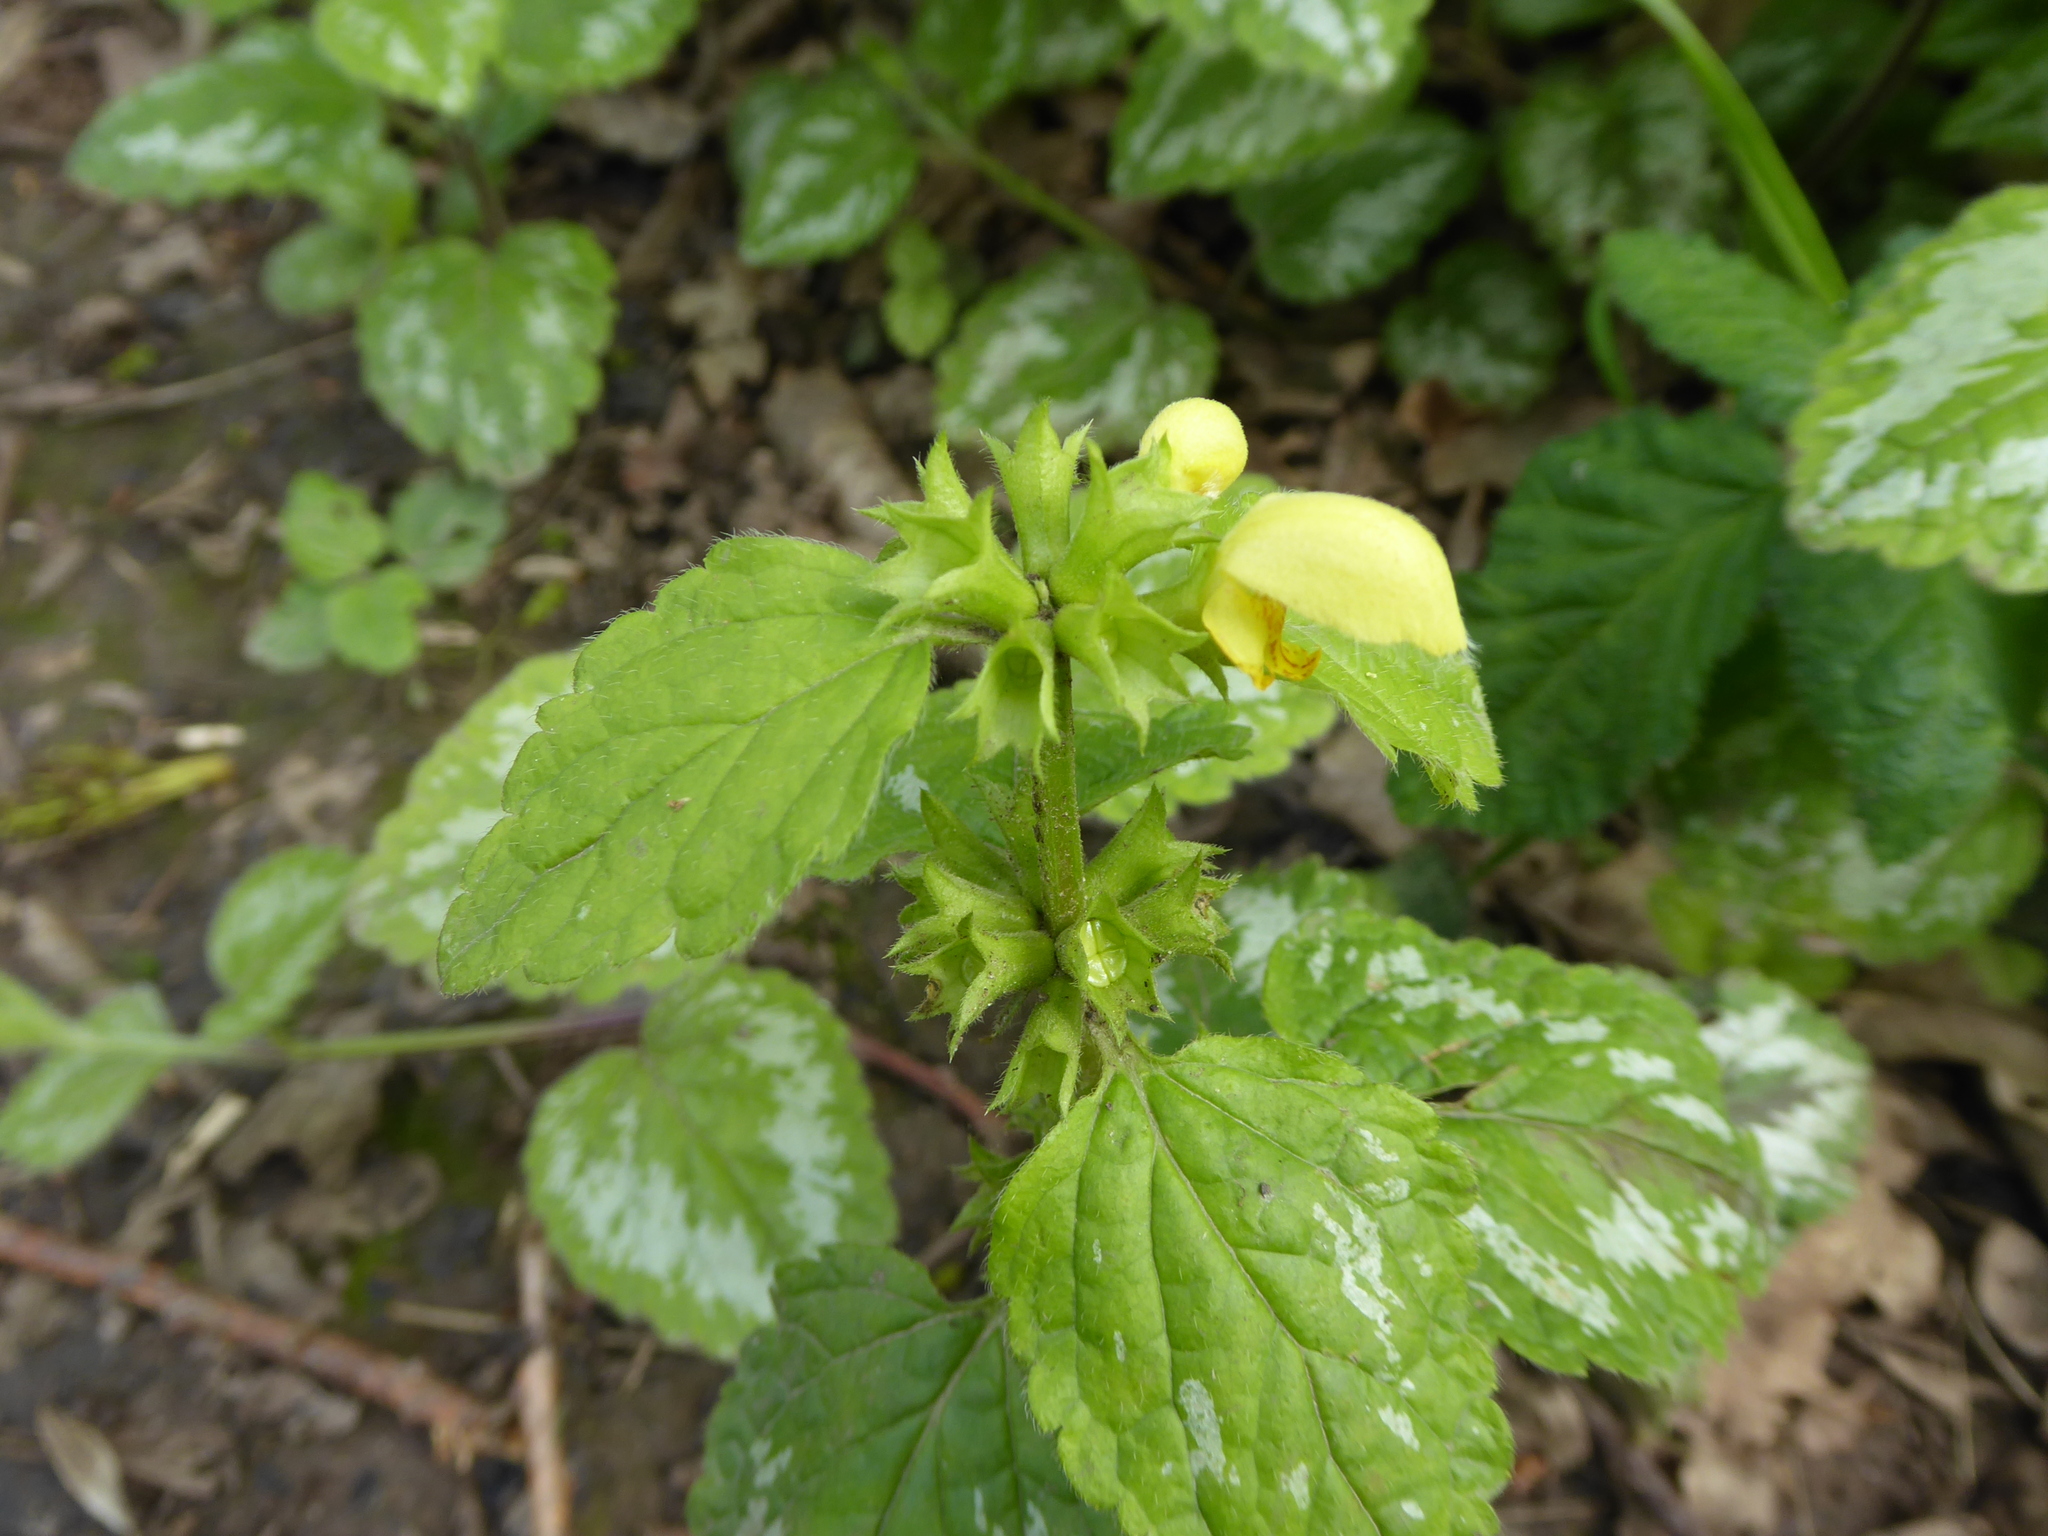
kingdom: Plantae
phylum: Tracheophyta
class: Magnoliopsida
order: Lamiales
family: Lamiaceae
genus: Lamium
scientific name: Lamium galeobdolon
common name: Yellow archangel
